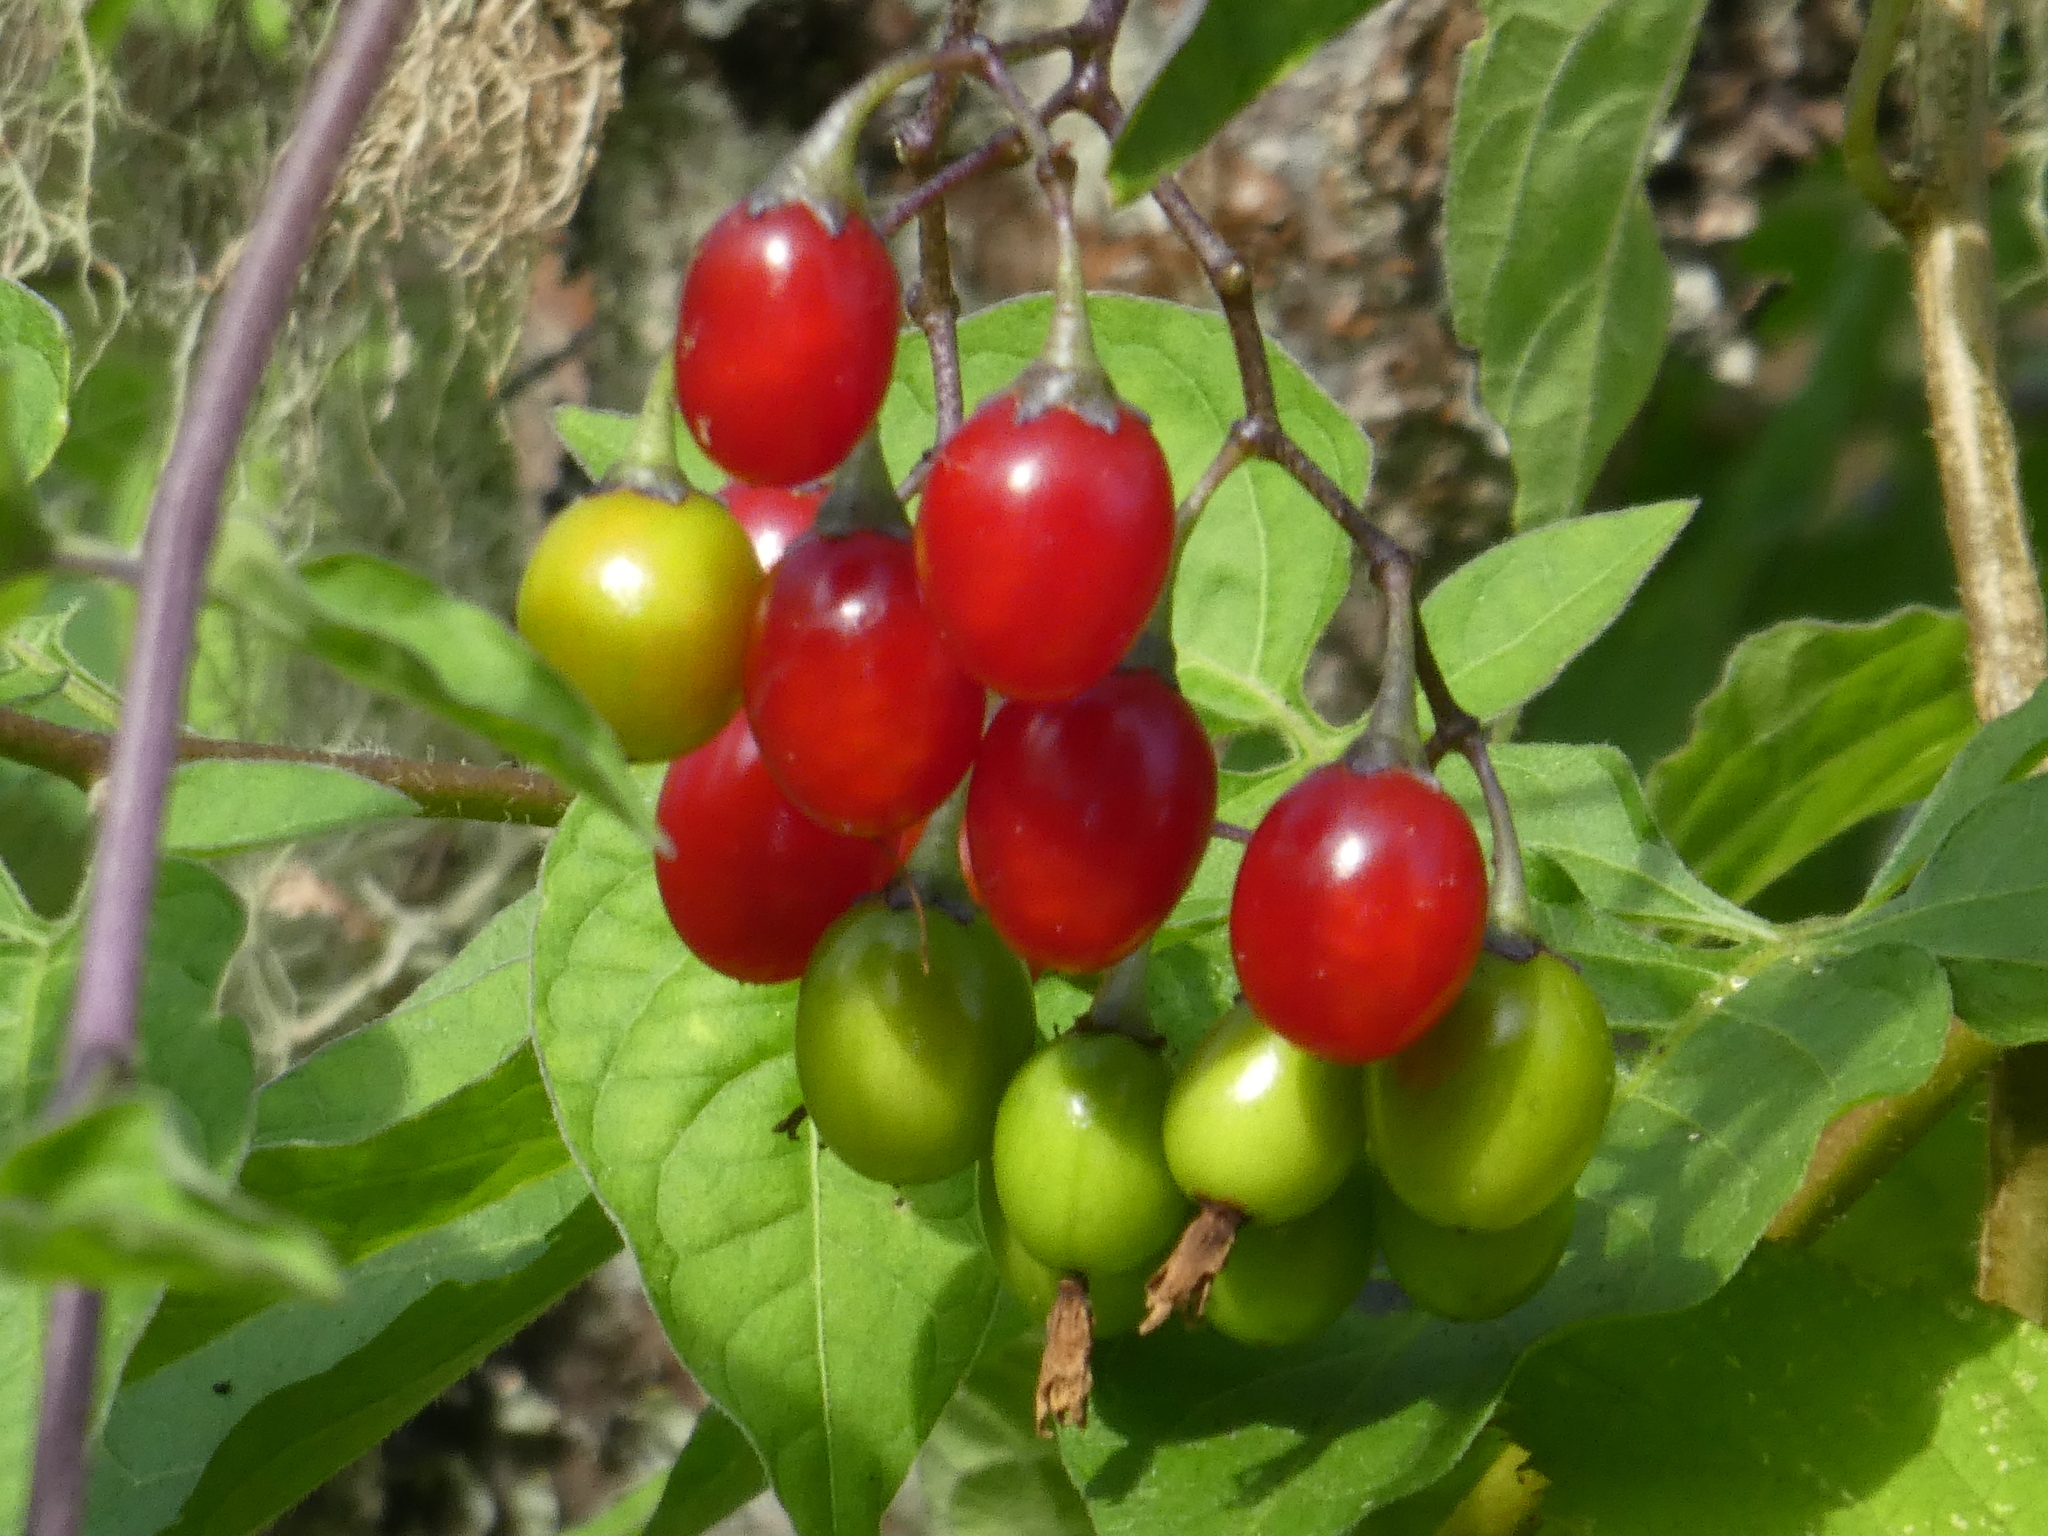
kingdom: Plantae
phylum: Tracheophyta
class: Magnoliopsida
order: Solanales
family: Solanaceae
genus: Solanum
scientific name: Solanum dulcamara
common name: Climbing nightshade
